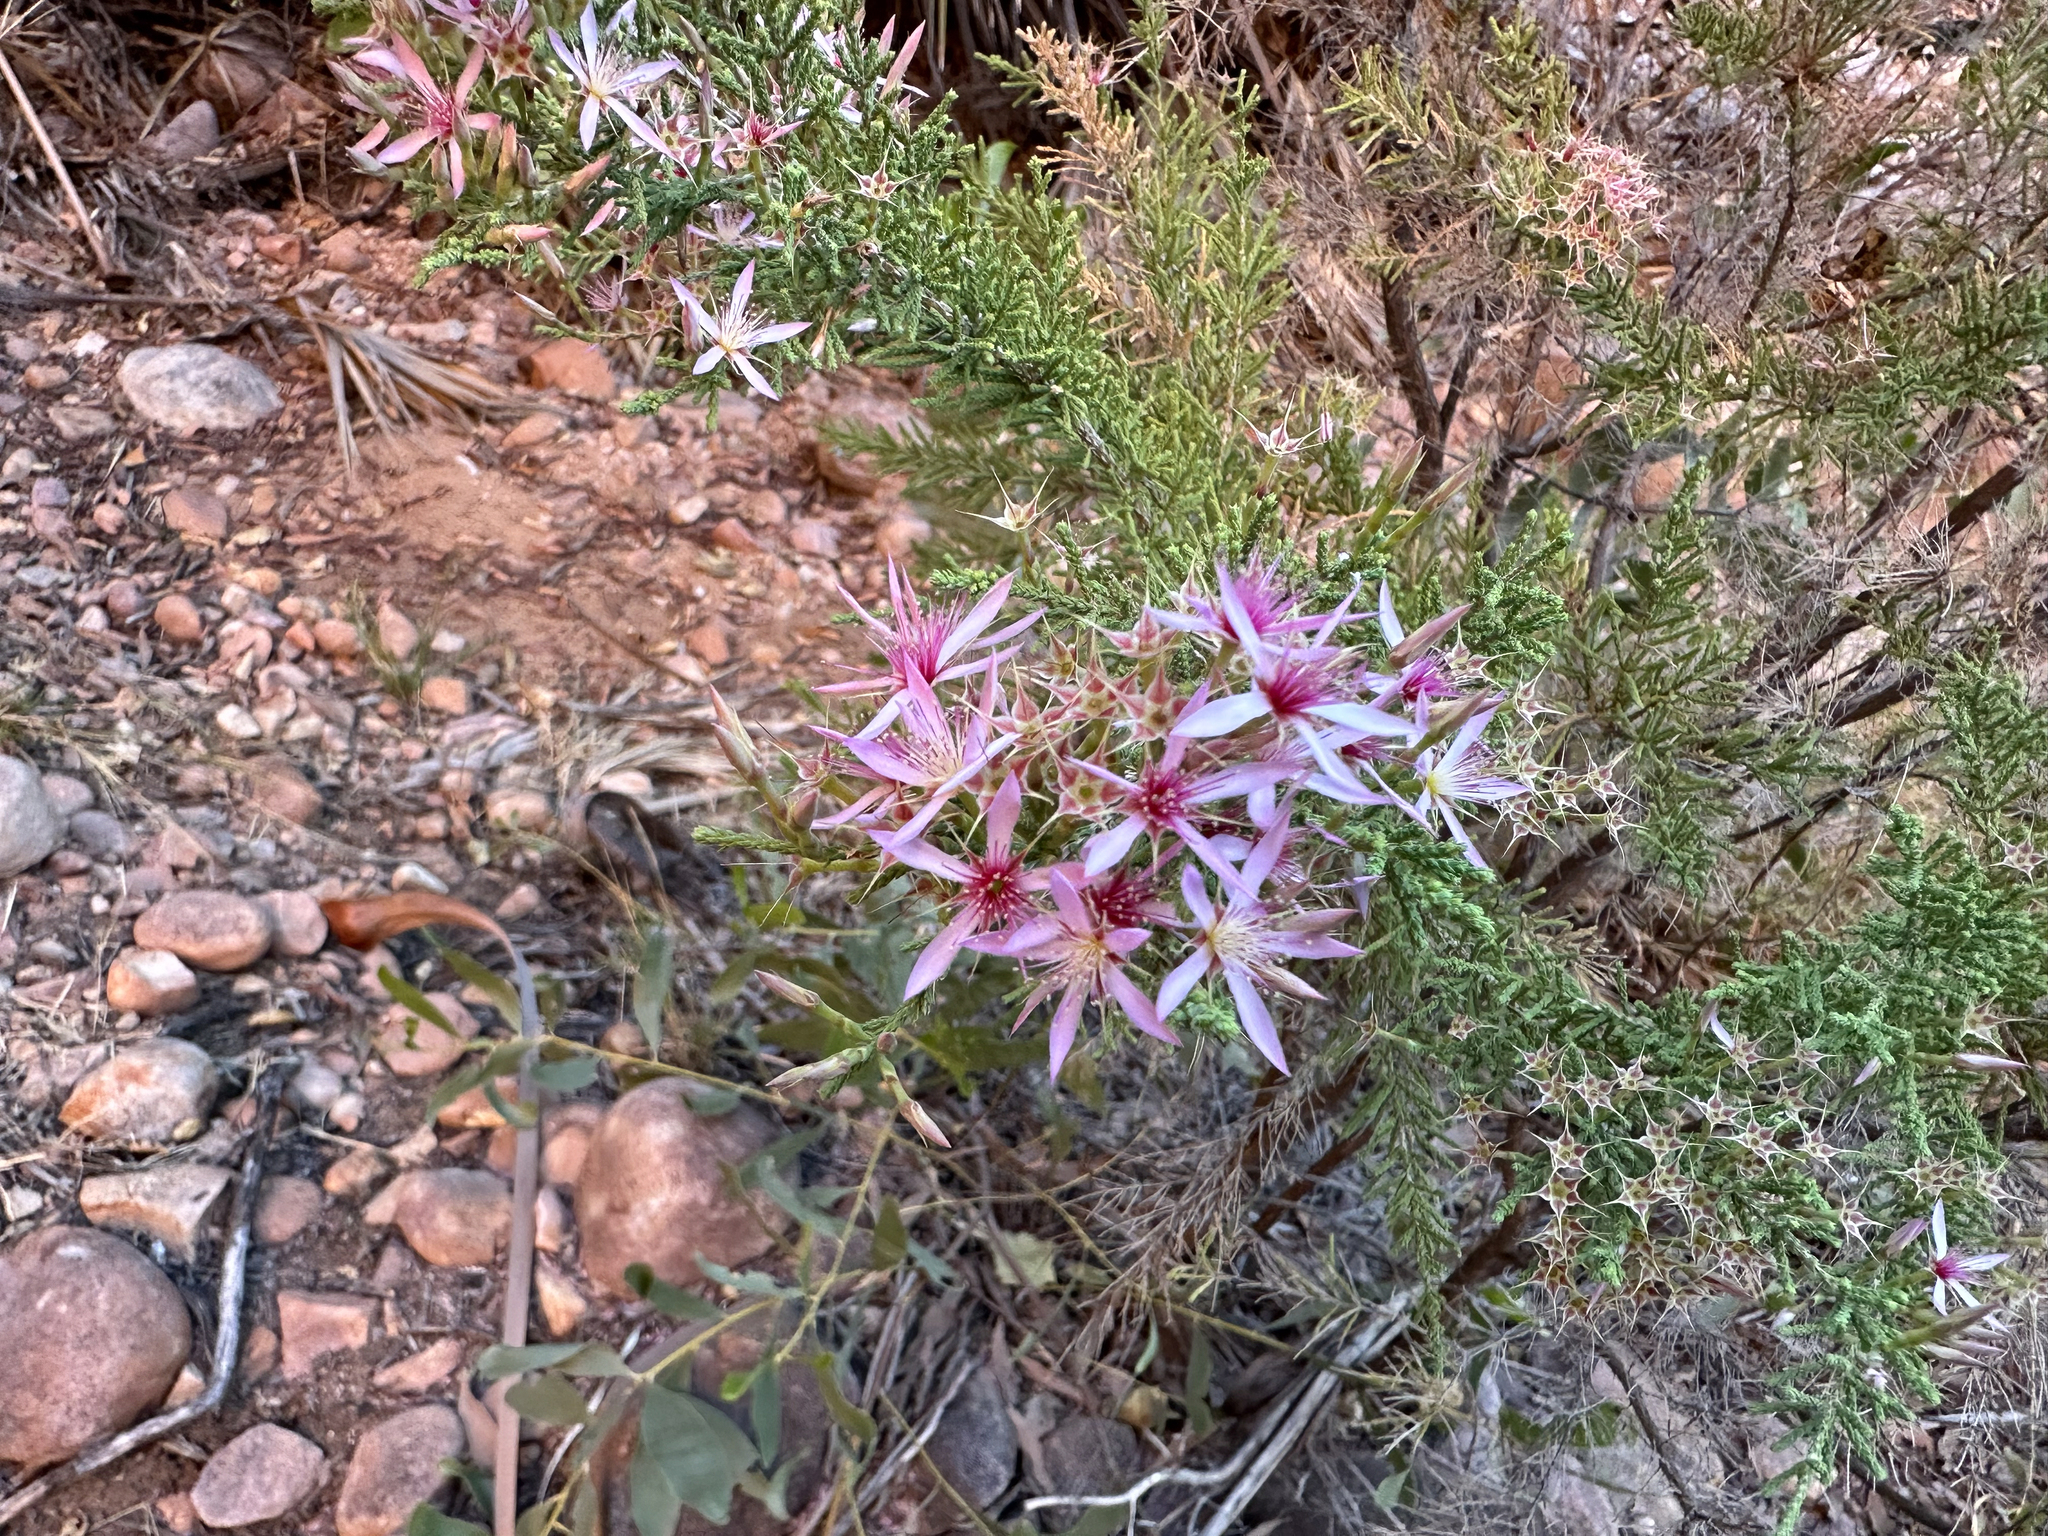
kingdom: Plantae
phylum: Tracheophyta
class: Magnoliopsida
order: Myrtales
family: Myrtaceae
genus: Calytrix
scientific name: Calytrix exstipulata
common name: Kimberley heather
